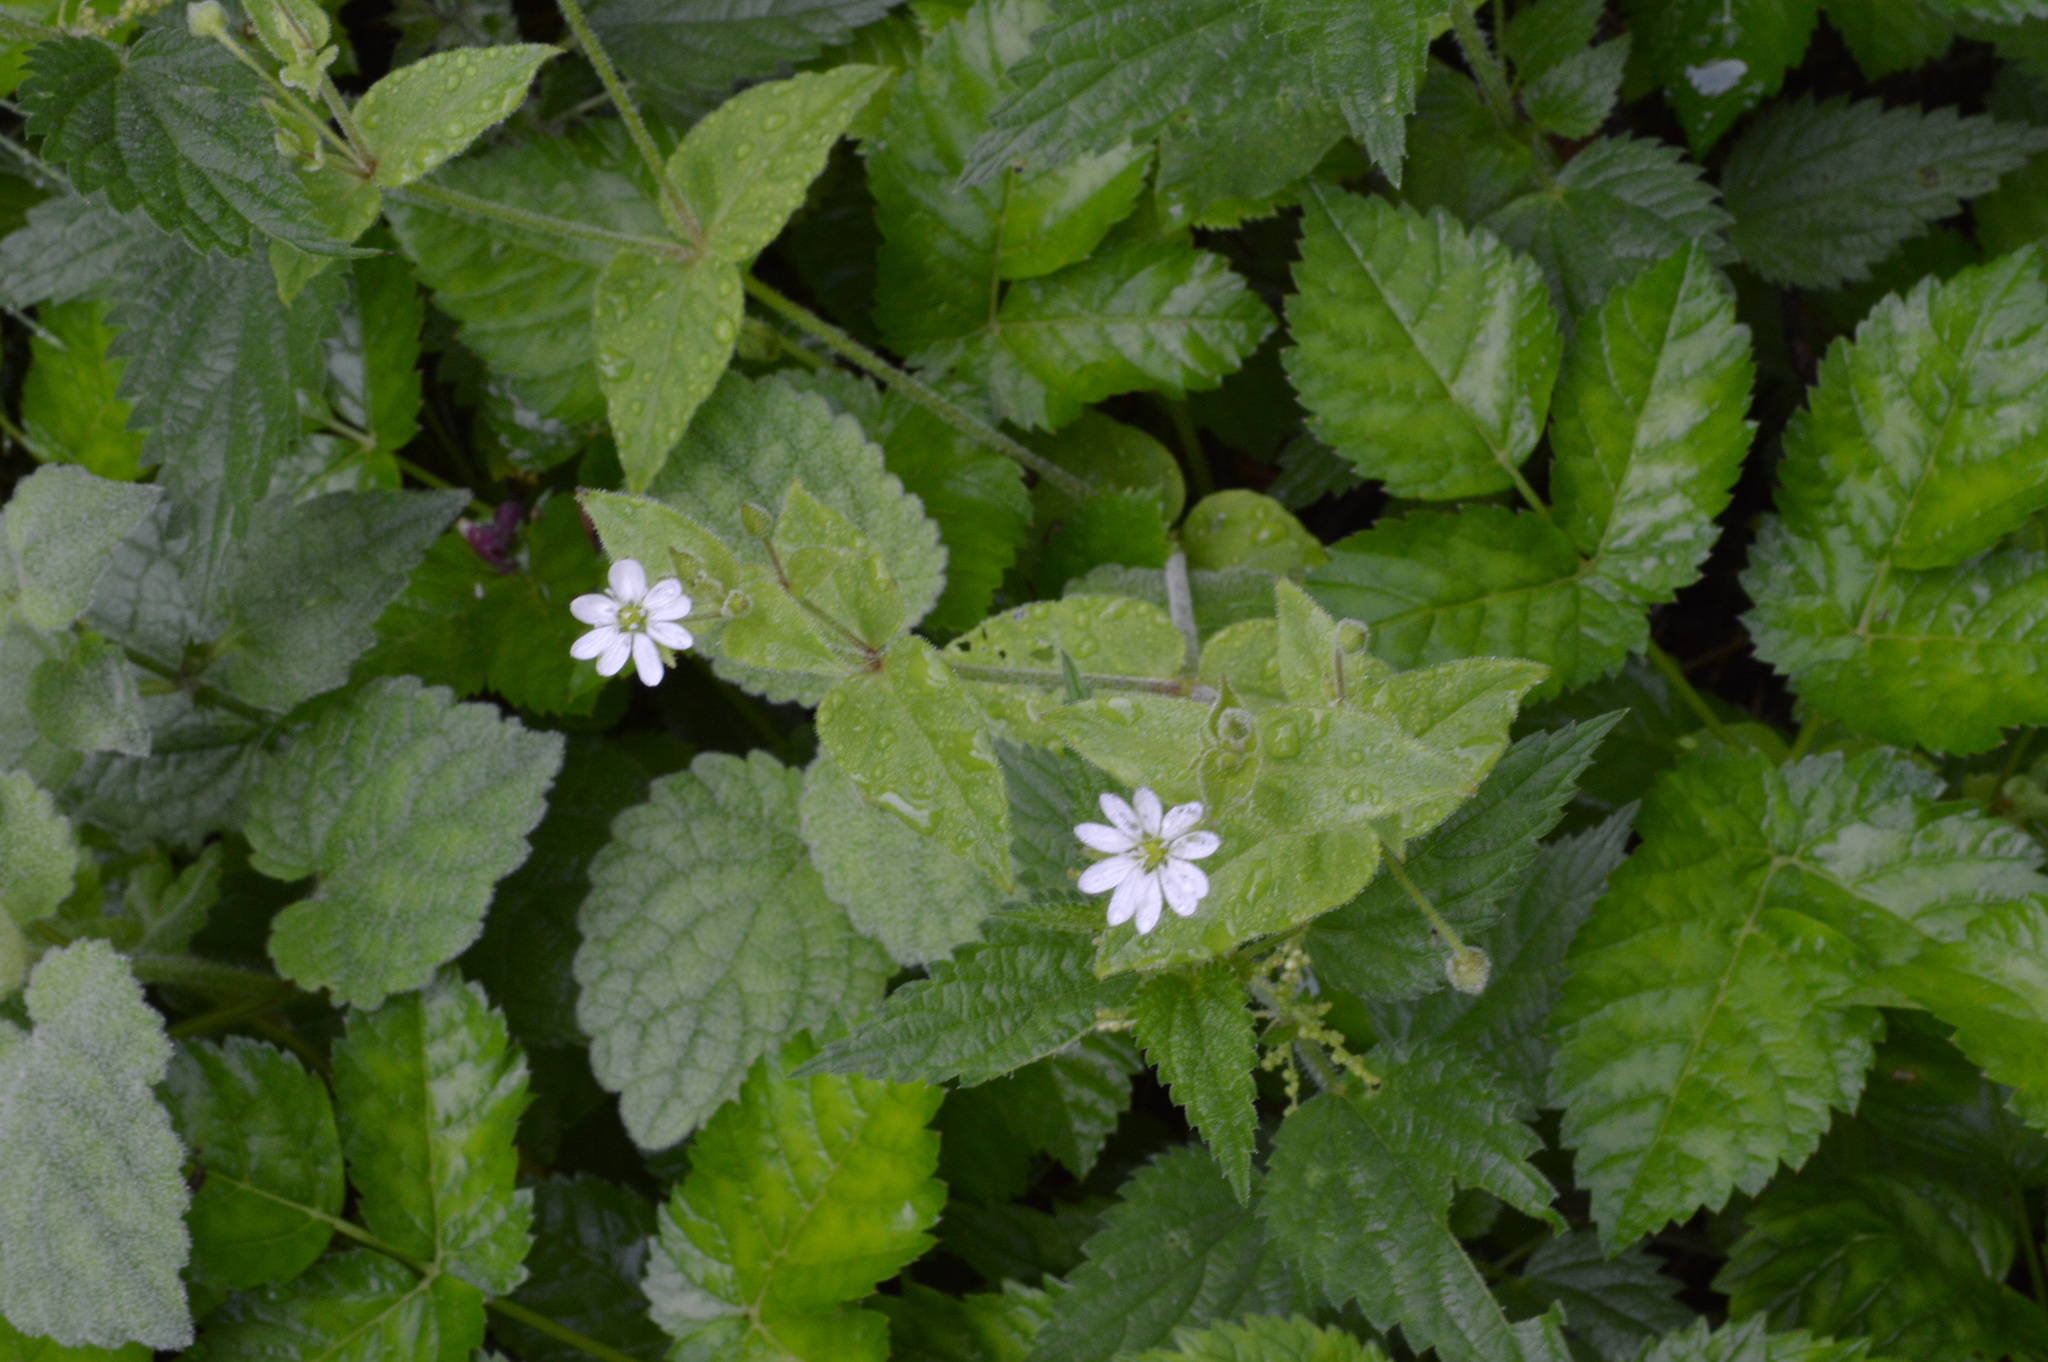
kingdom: Plantae
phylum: Tracheophyta
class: Magnoliopsida
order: Caryophyllales
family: Caryophyllaceae
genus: Stellaria
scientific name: Stellaria aquatica
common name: Water chickweed
